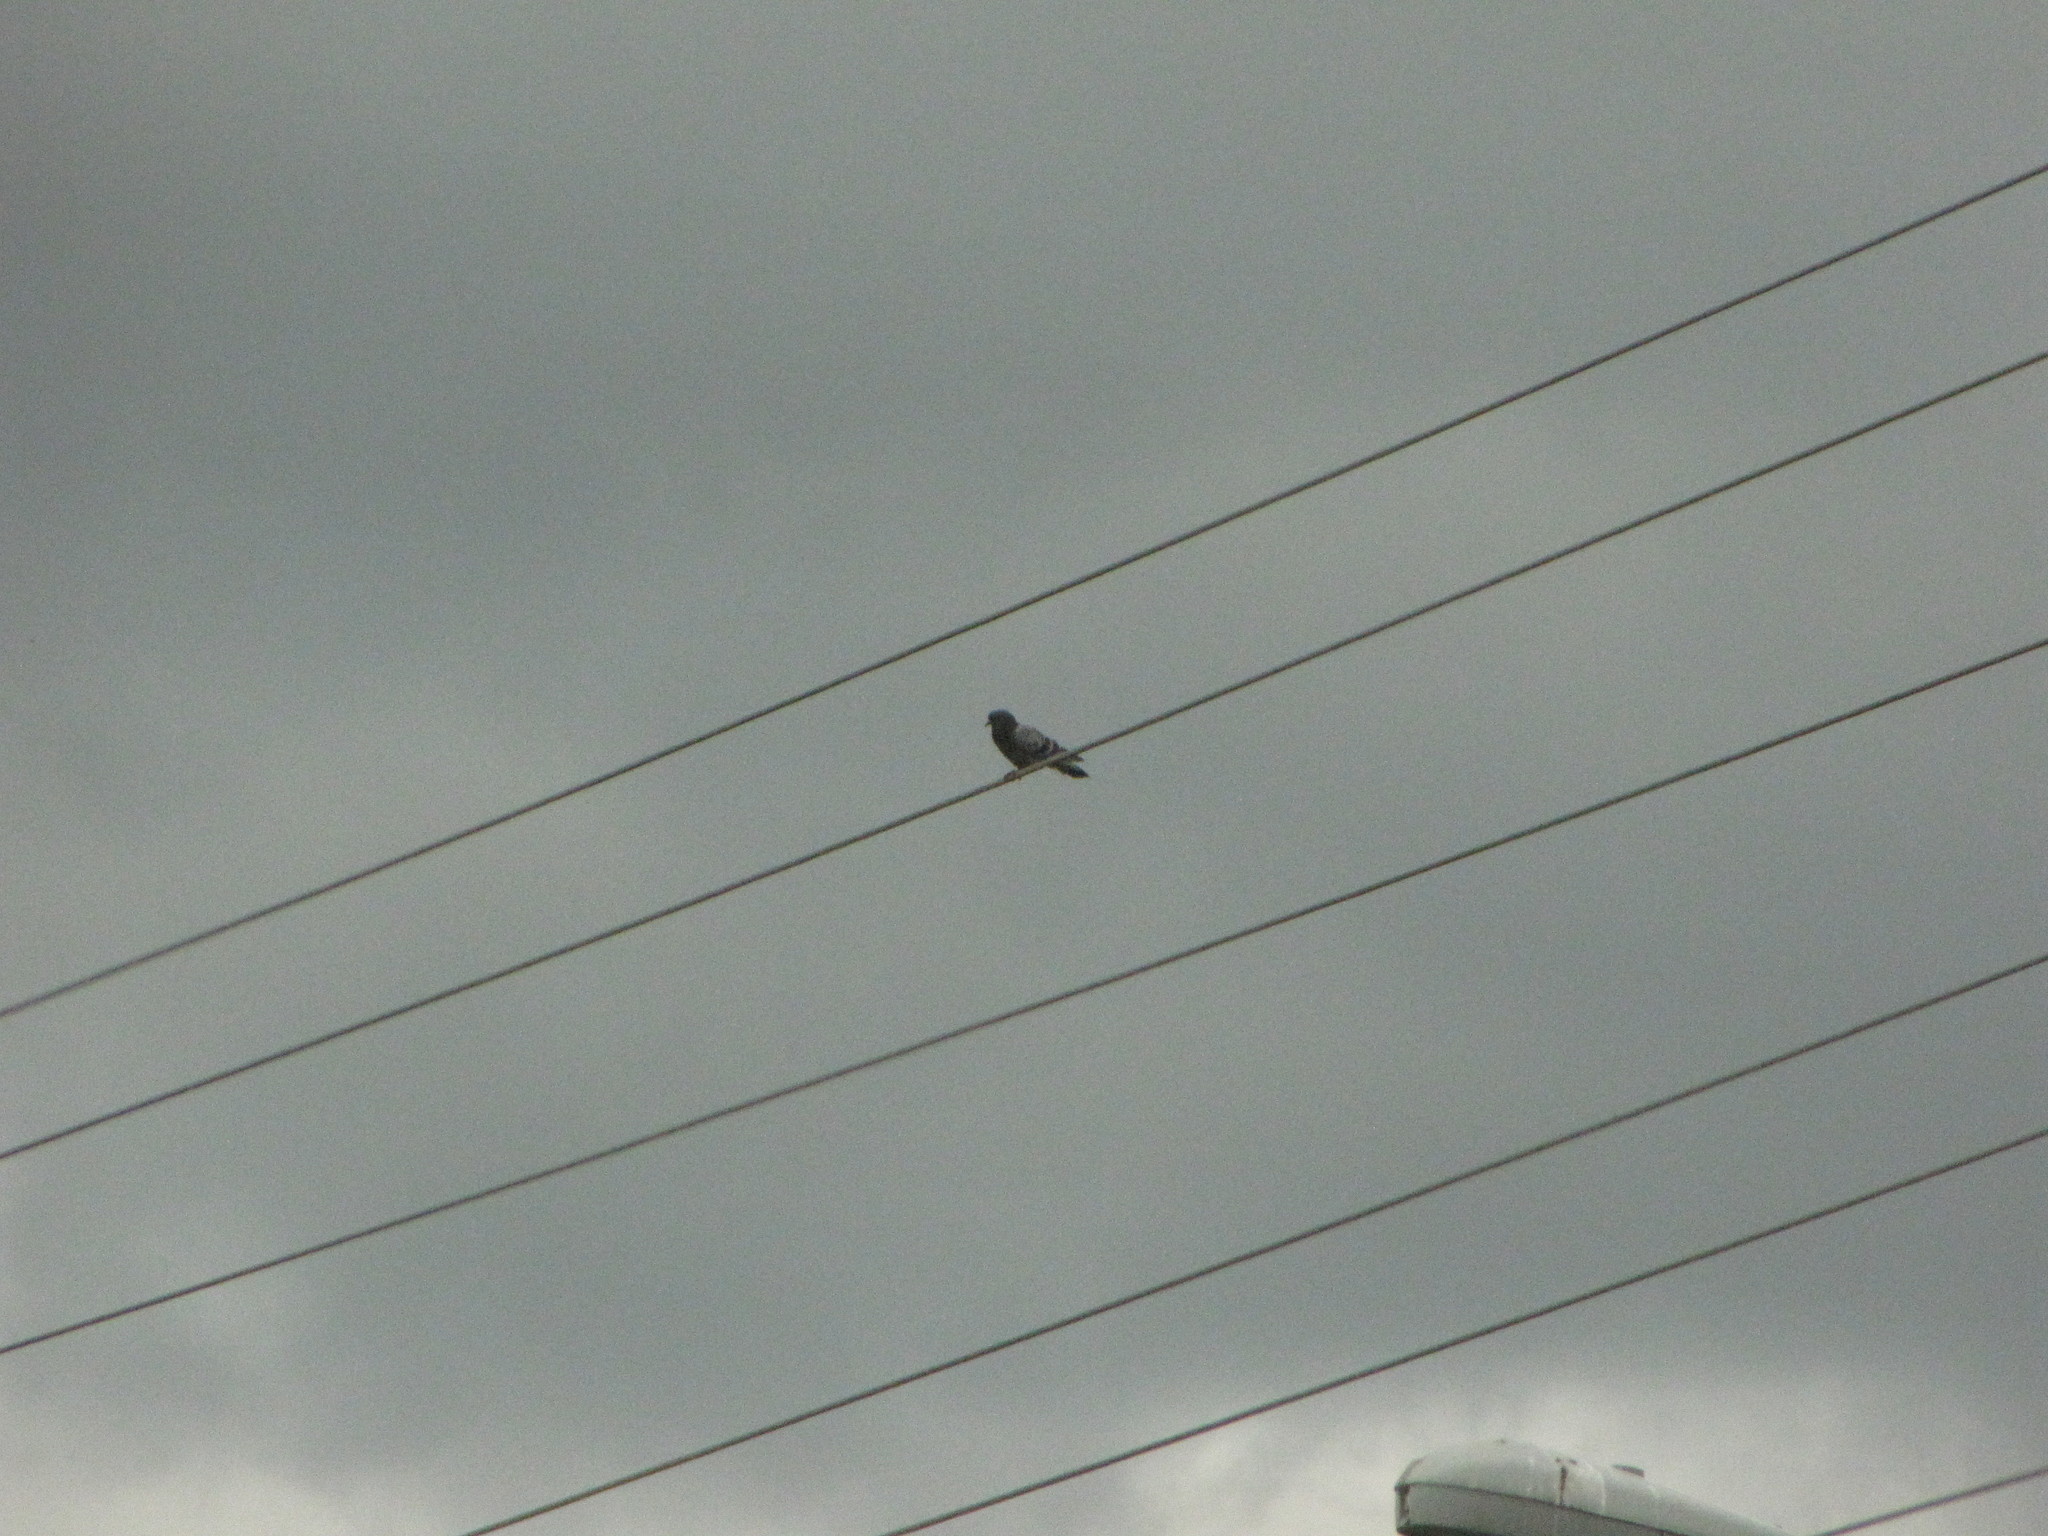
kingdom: Animalia
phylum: Chordata
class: Aves
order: Columbiformes
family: Columbidae
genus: Columba
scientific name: Columba livia
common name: Rock pigeon
